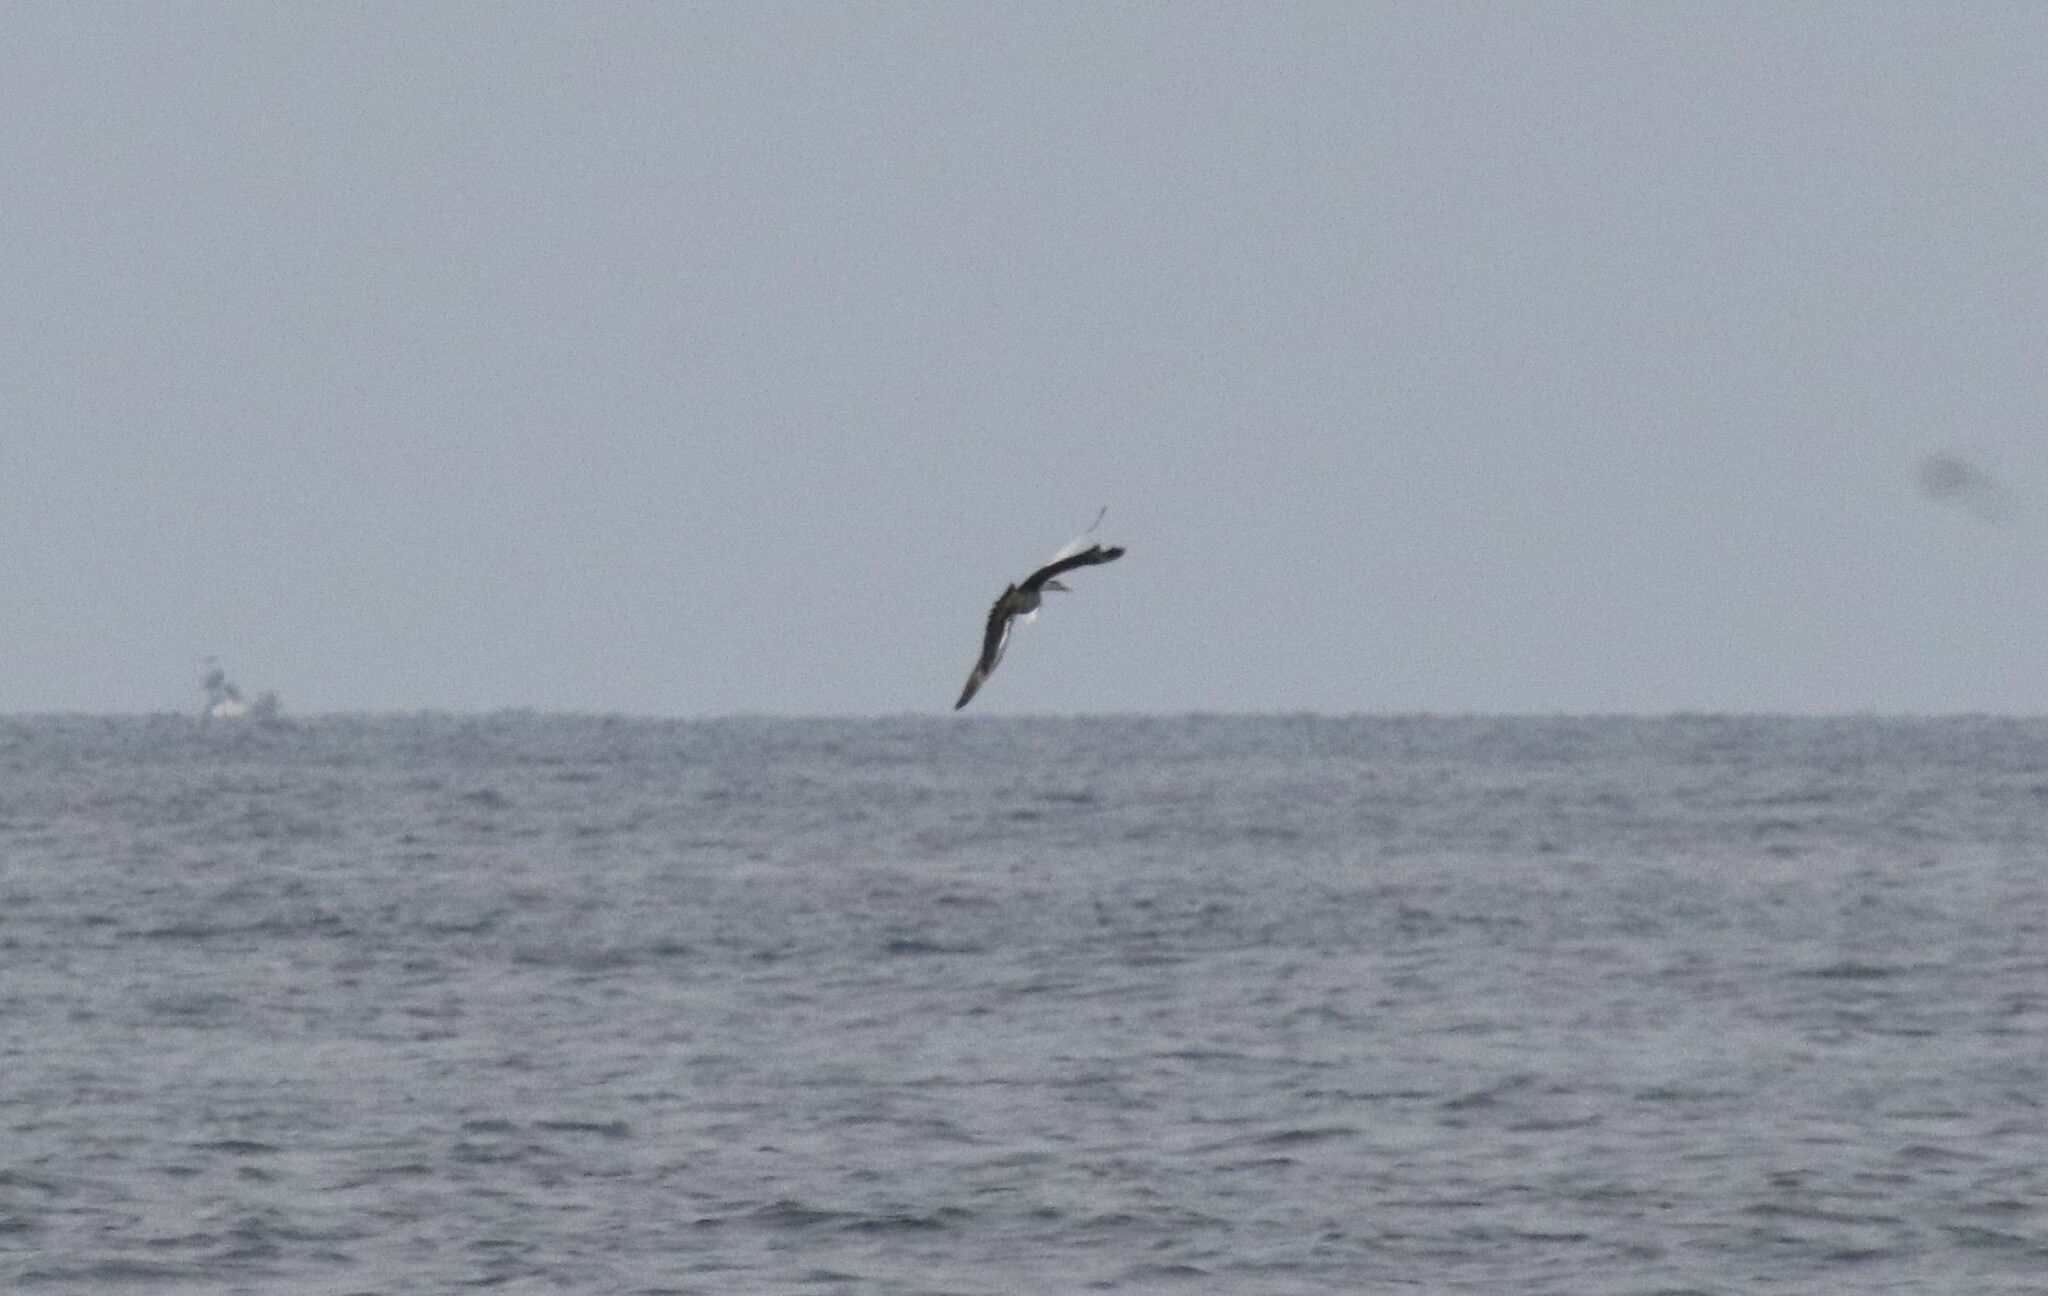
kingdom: Animalia
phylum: Chordata
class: Aves
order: Charadriiformes
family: Stercorariidae
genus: Stercorarius
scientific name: Stercorarius parasiticus
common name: Parasitic jaeger
